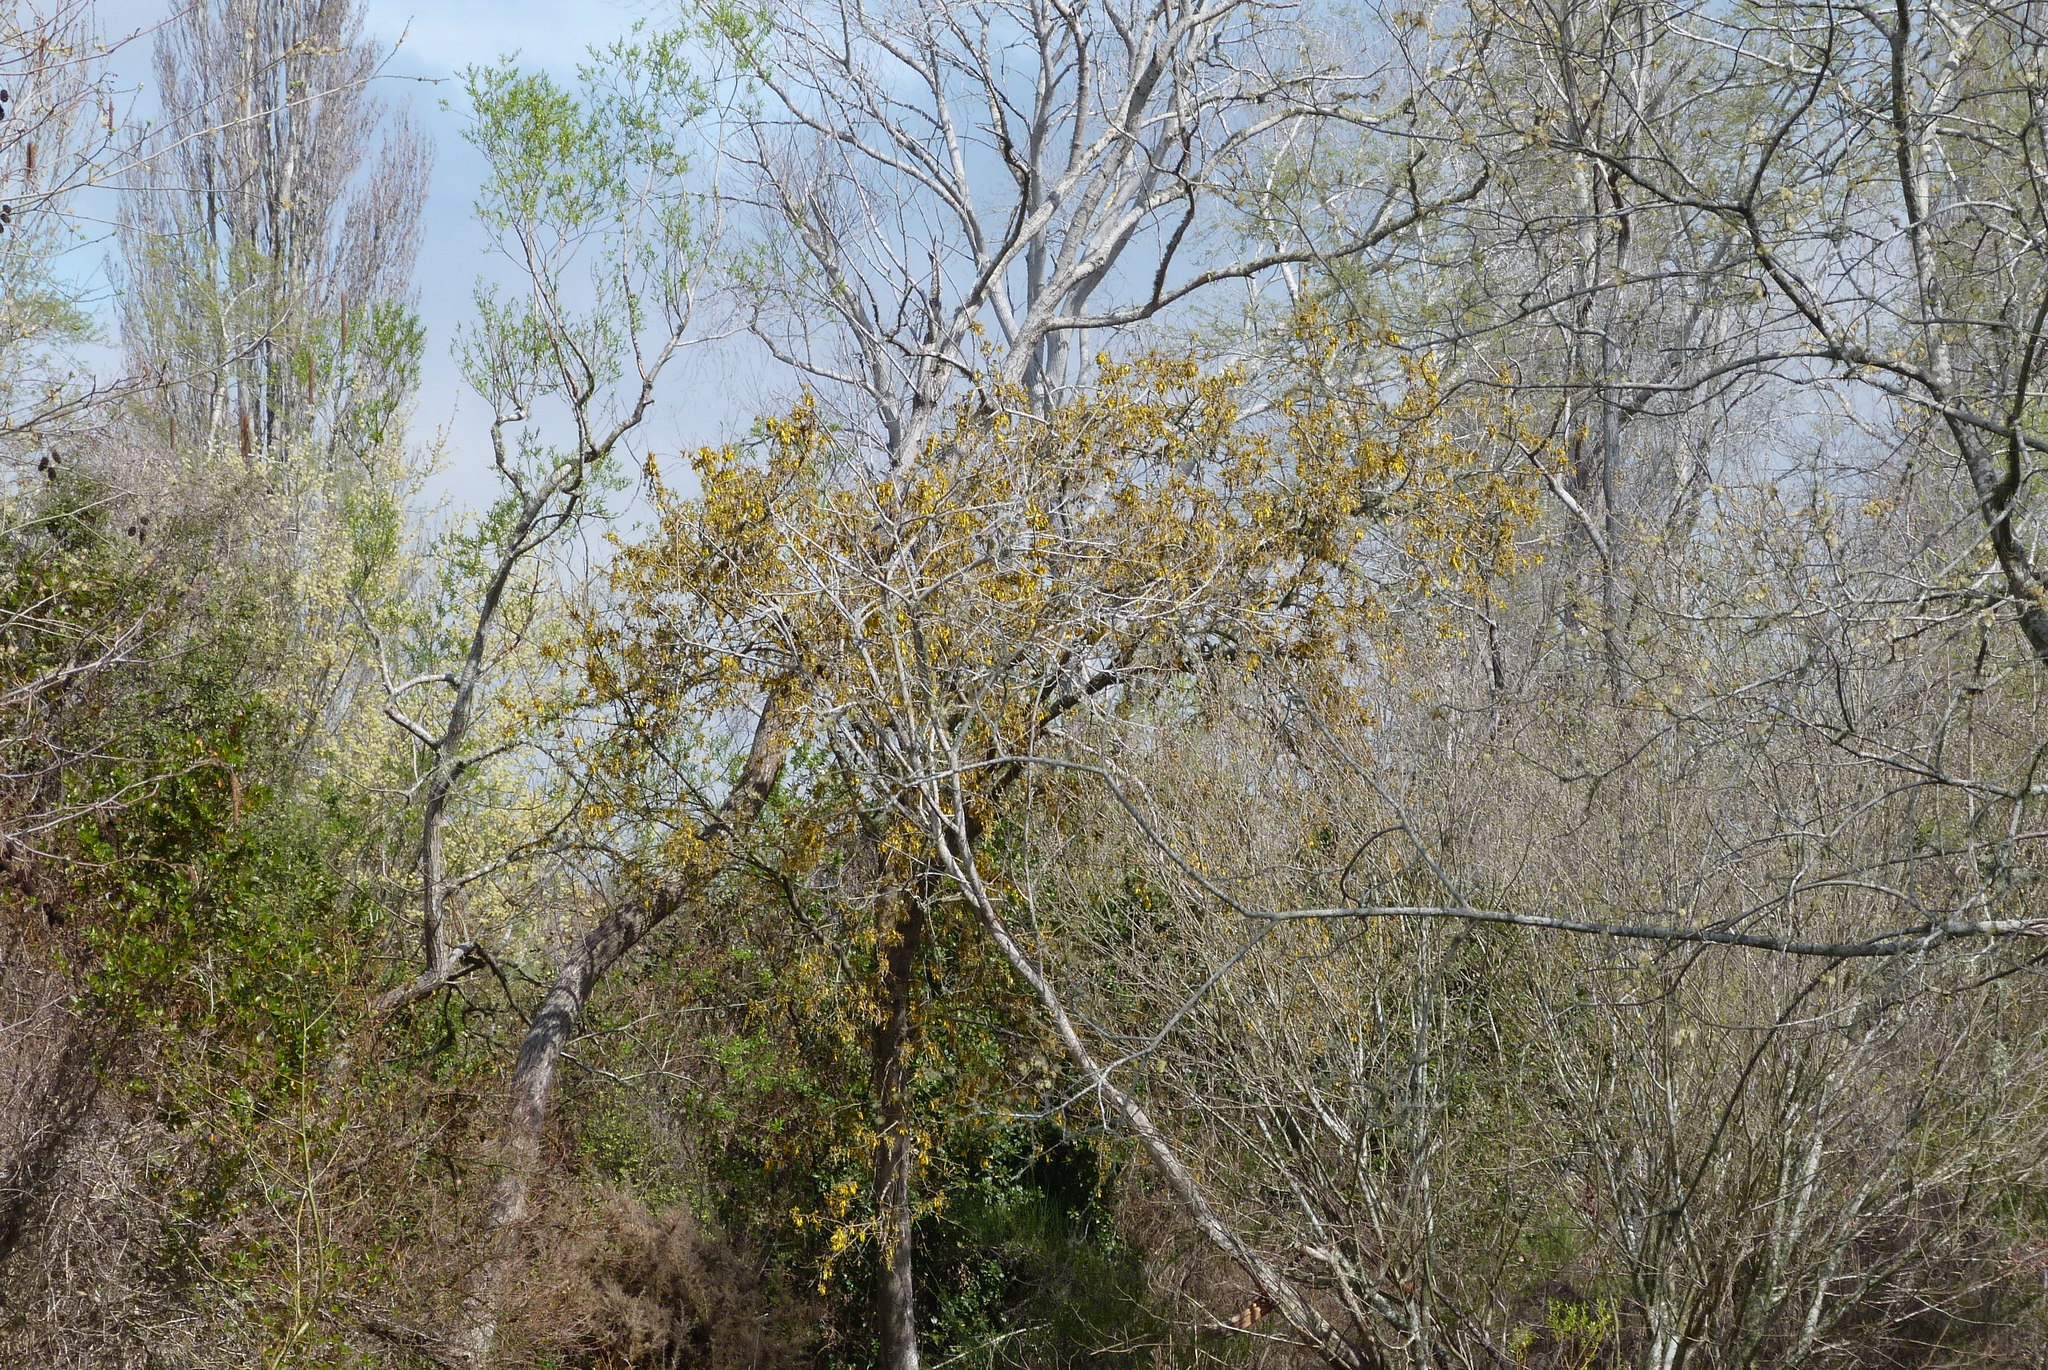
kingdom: Plantae
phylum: Tracheophyta
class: Magnoliopsida
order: Fabales
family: Fabaceae
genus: Sophora
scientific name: Sophora microphylla
